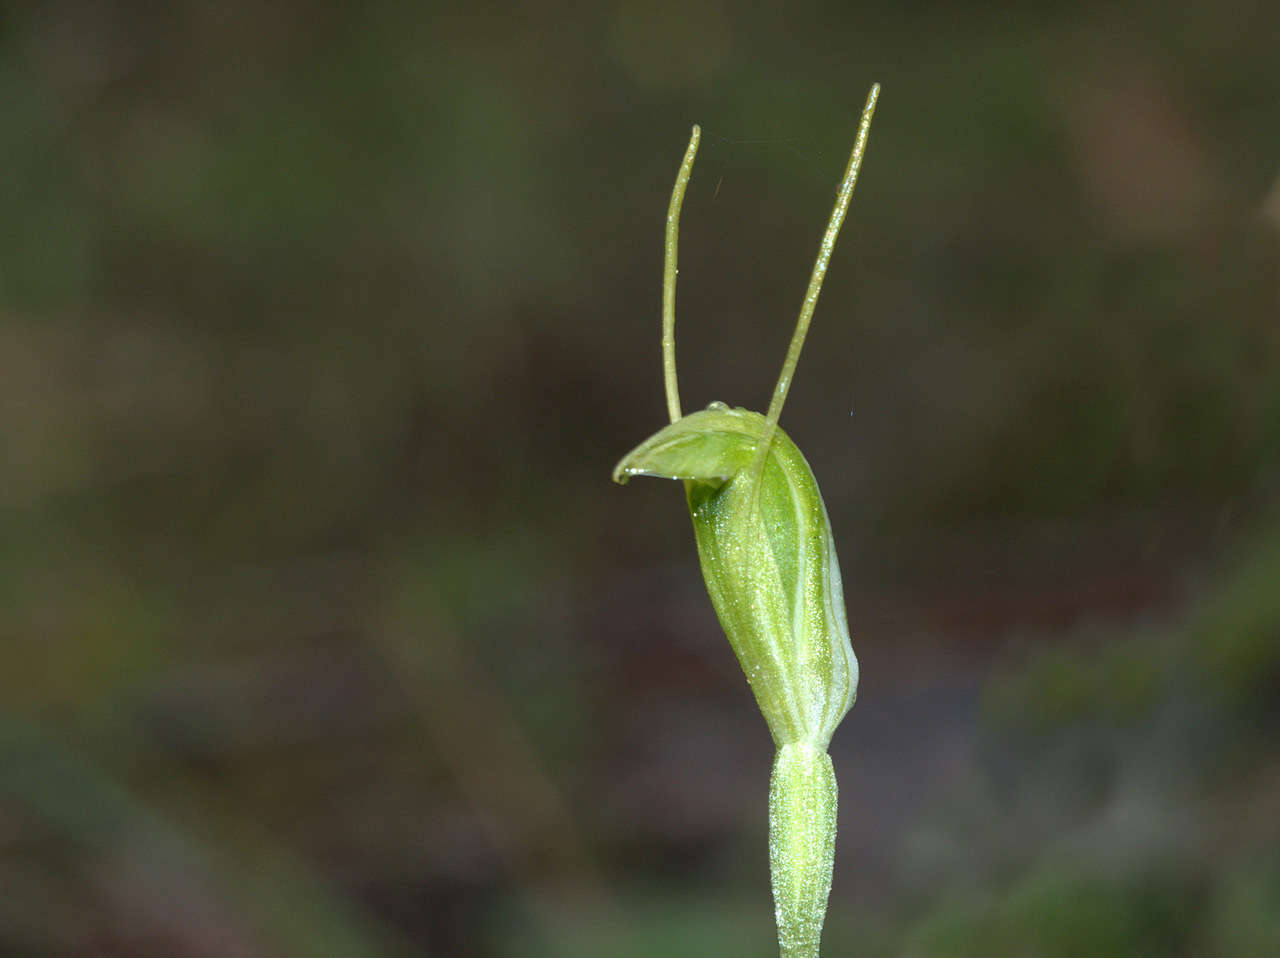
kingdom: Plantae
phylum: Tracheophyta
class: Liliopsida
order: Asparagales
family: Orchidaceae
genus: Pterostylis
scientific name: Pterostylis nana
